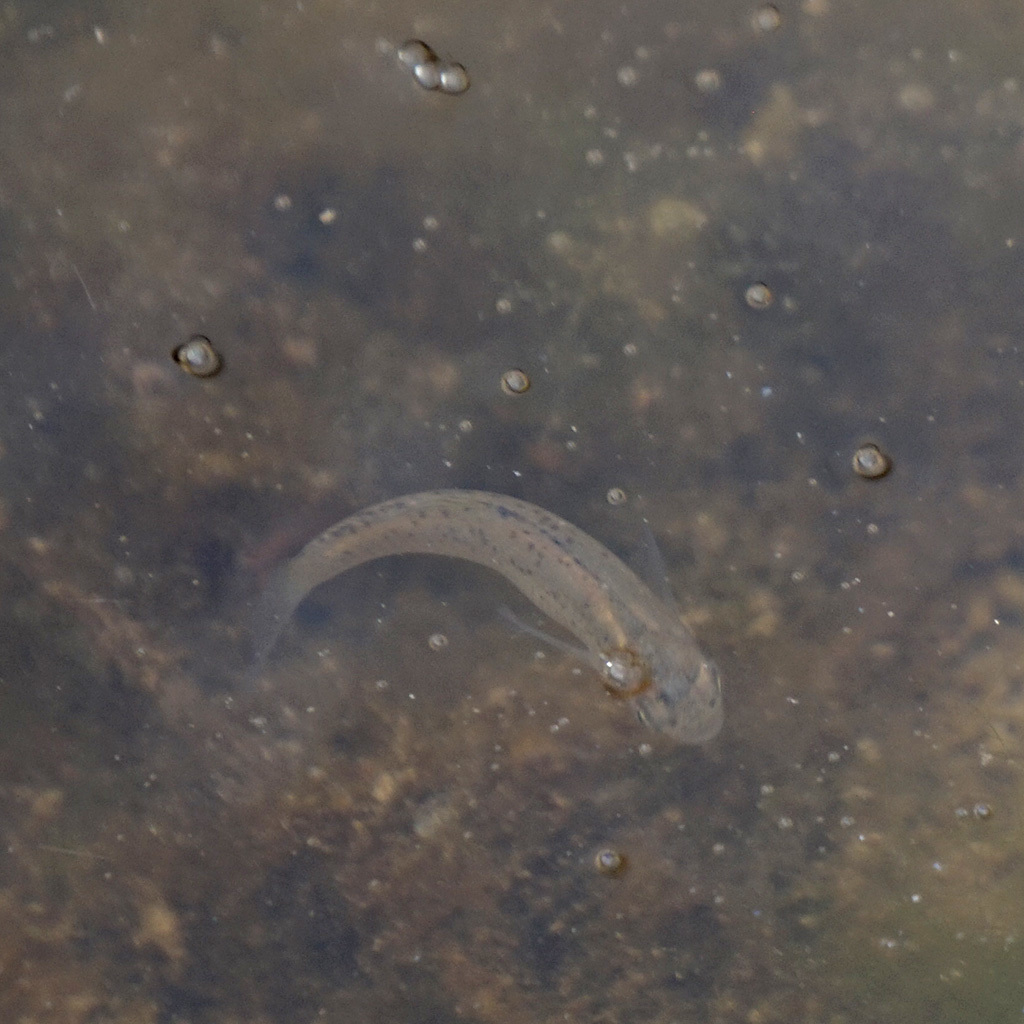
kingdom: Animalia
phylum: Chordata
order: Cyprinodontiformes
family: Poeciliidae
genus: Gambusia
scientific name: Gambusia holbrooki
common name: Eastern mosquitofish
